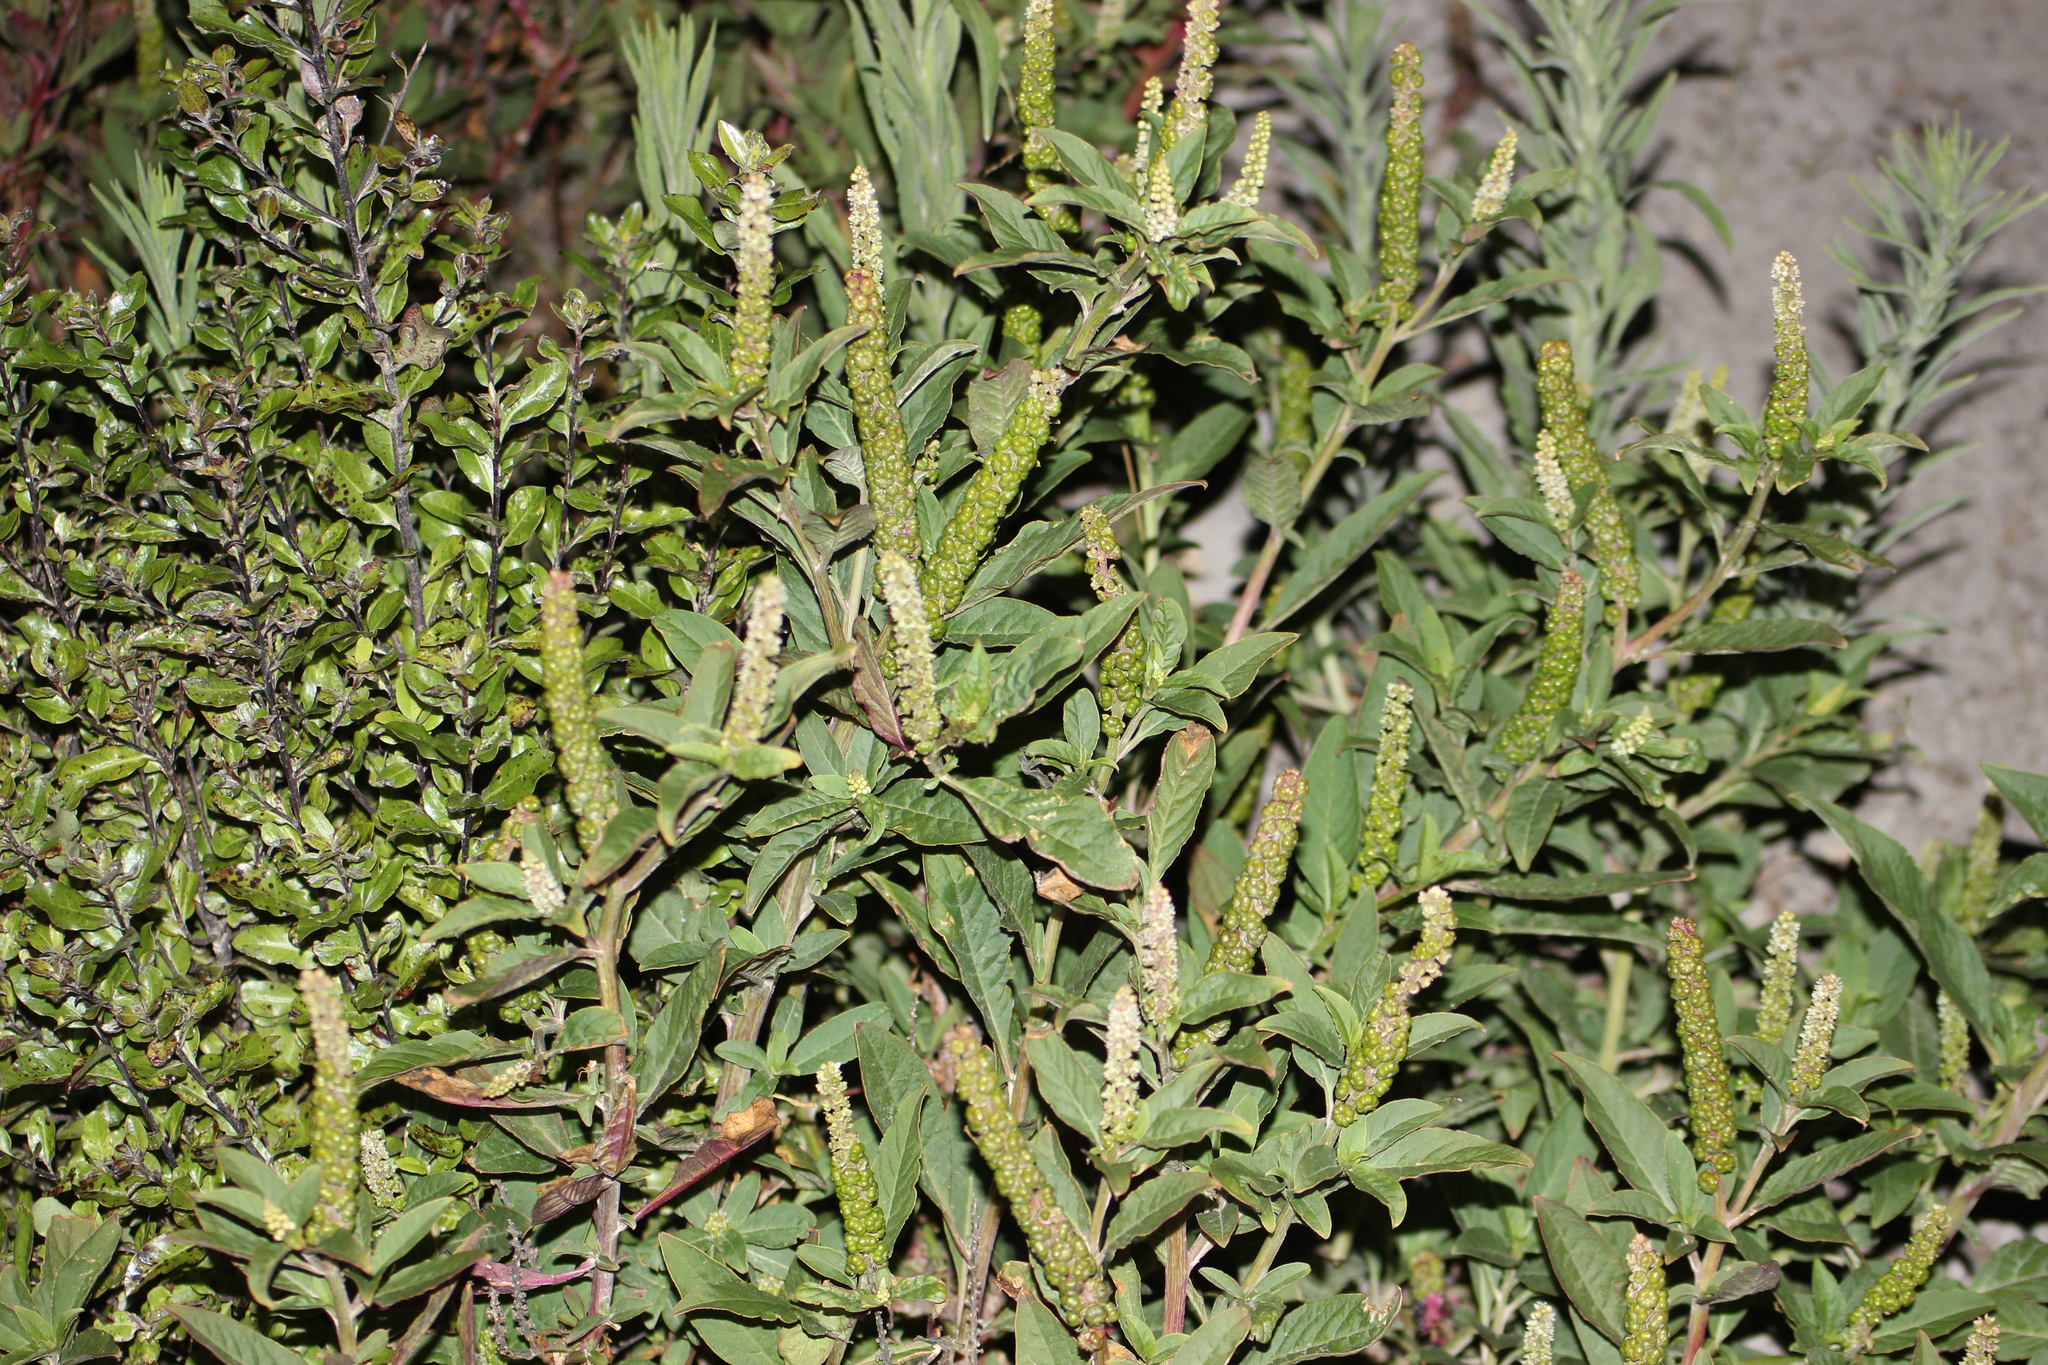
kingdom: Plantae
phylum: Tracheophyta
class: Magnoliopsida
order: Caryophyllales
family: Phytolaccaceae
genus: Phytolacca
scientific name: Phytolacca icosandra
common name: Button pokeweed
